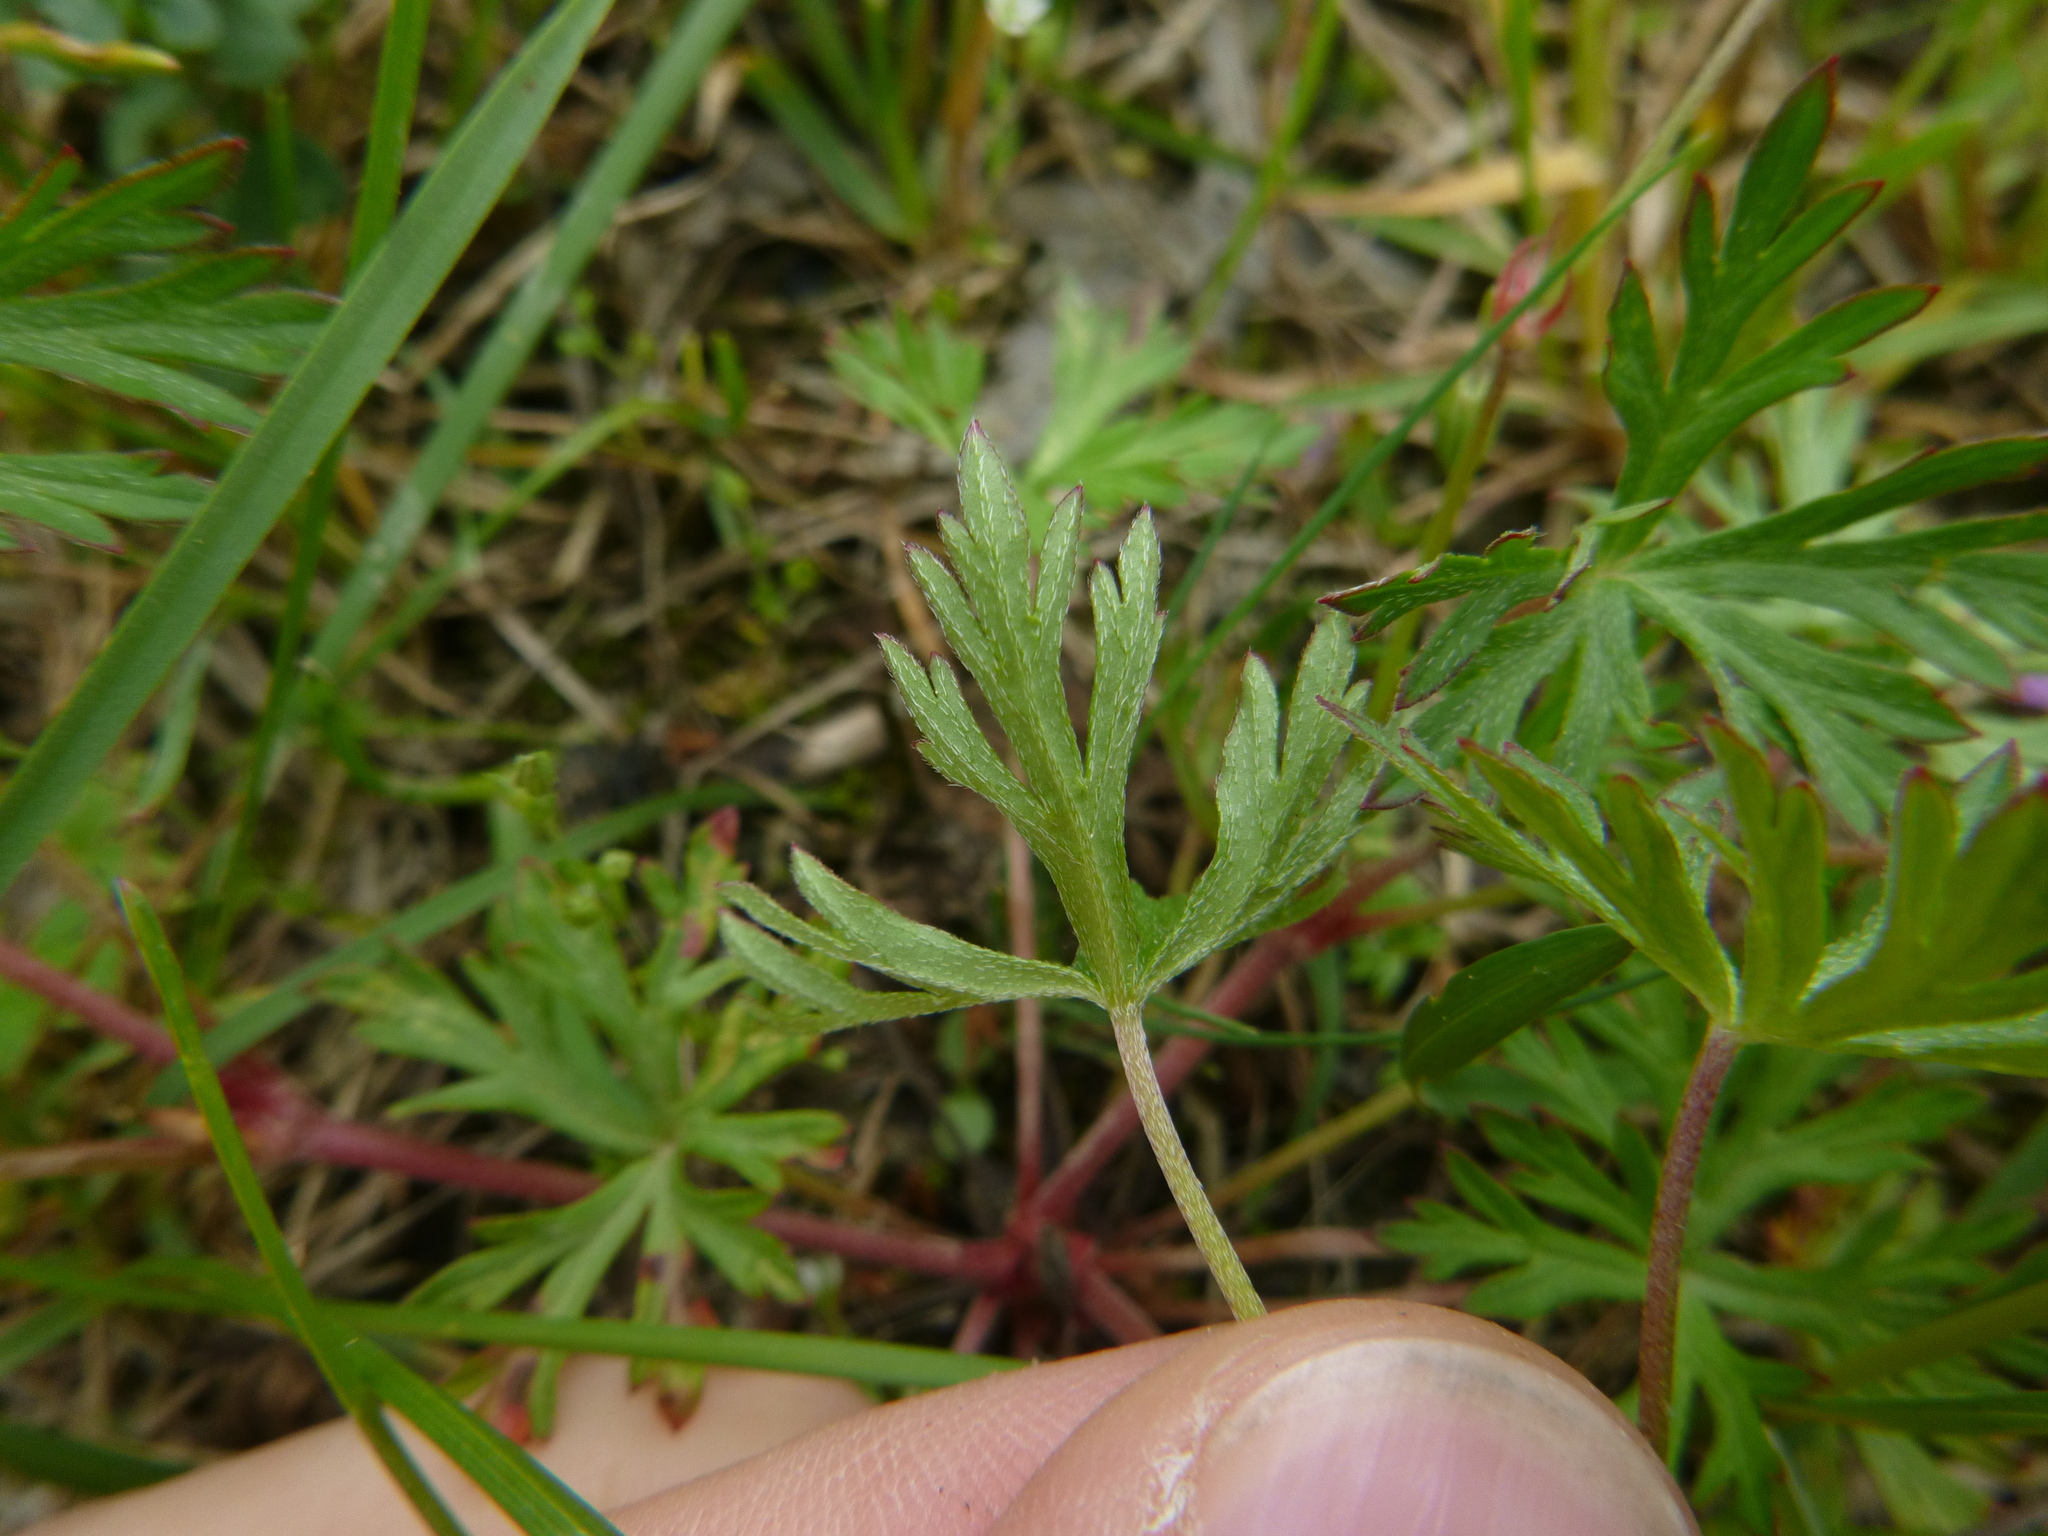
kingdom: Plantae
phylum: Tracheophyta
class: Magnoliopsida
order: Geraniales
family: Geraniaceae
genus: Geranium
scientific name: Geranium columbinum
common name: Long-stalked crane's-bill
